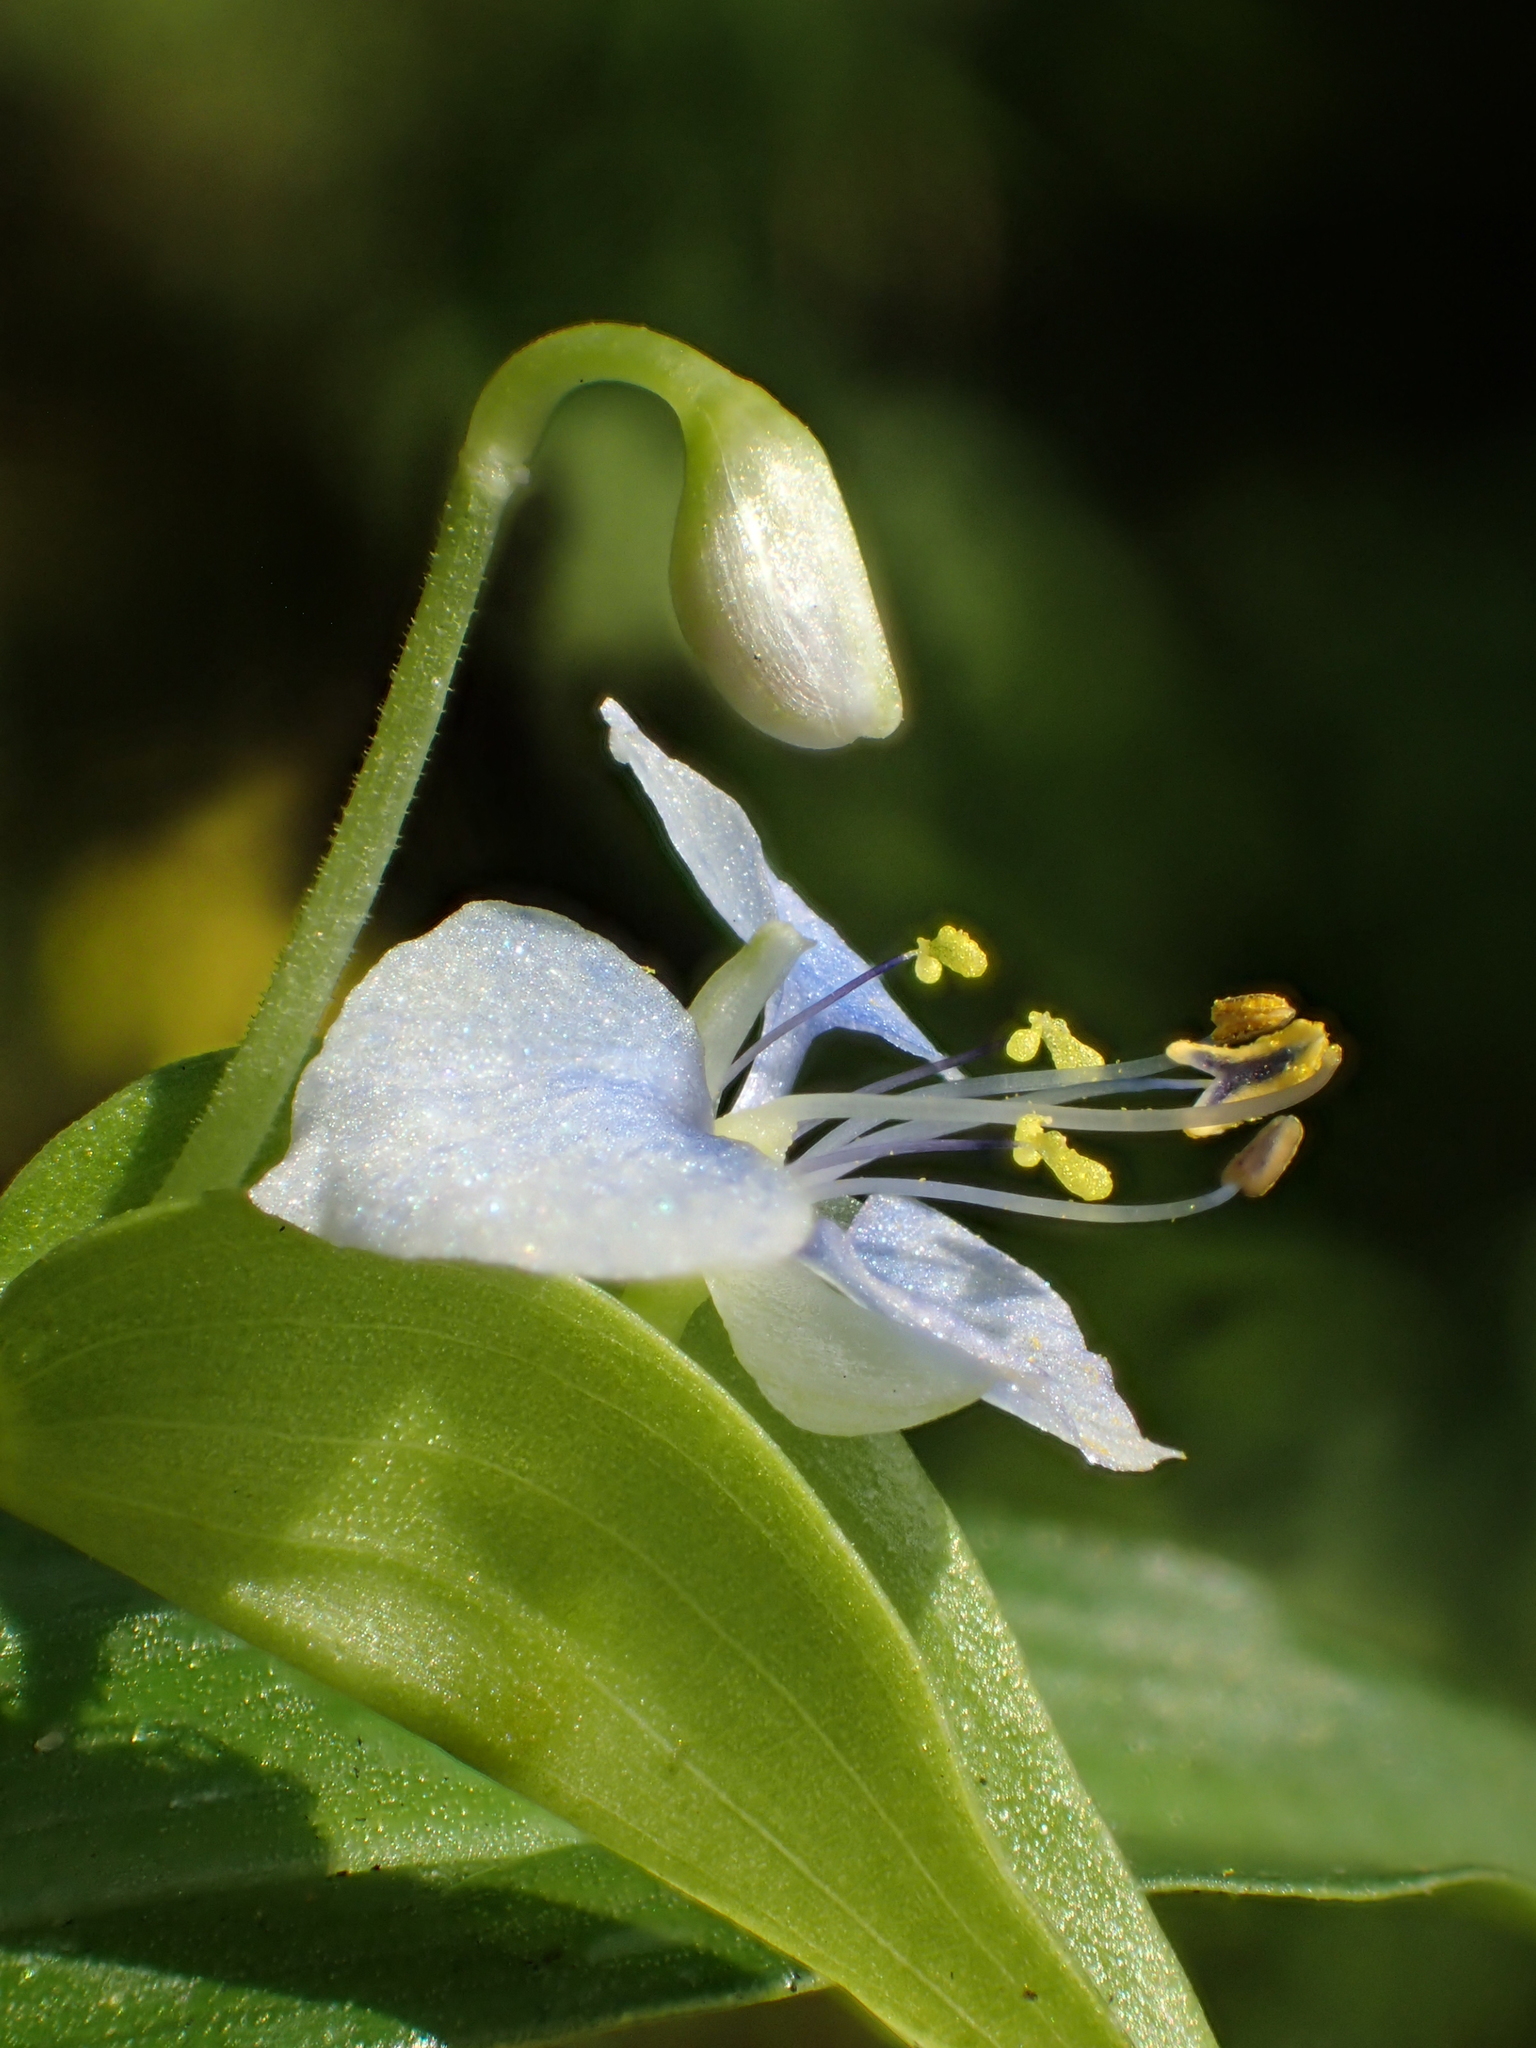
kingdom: Plantae
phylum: Tracheophyta
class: Liliopsida
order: Commelinales
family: Commelinaceae
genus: Commelina
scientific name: Commelina diffusa
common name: Climbing dayflower
